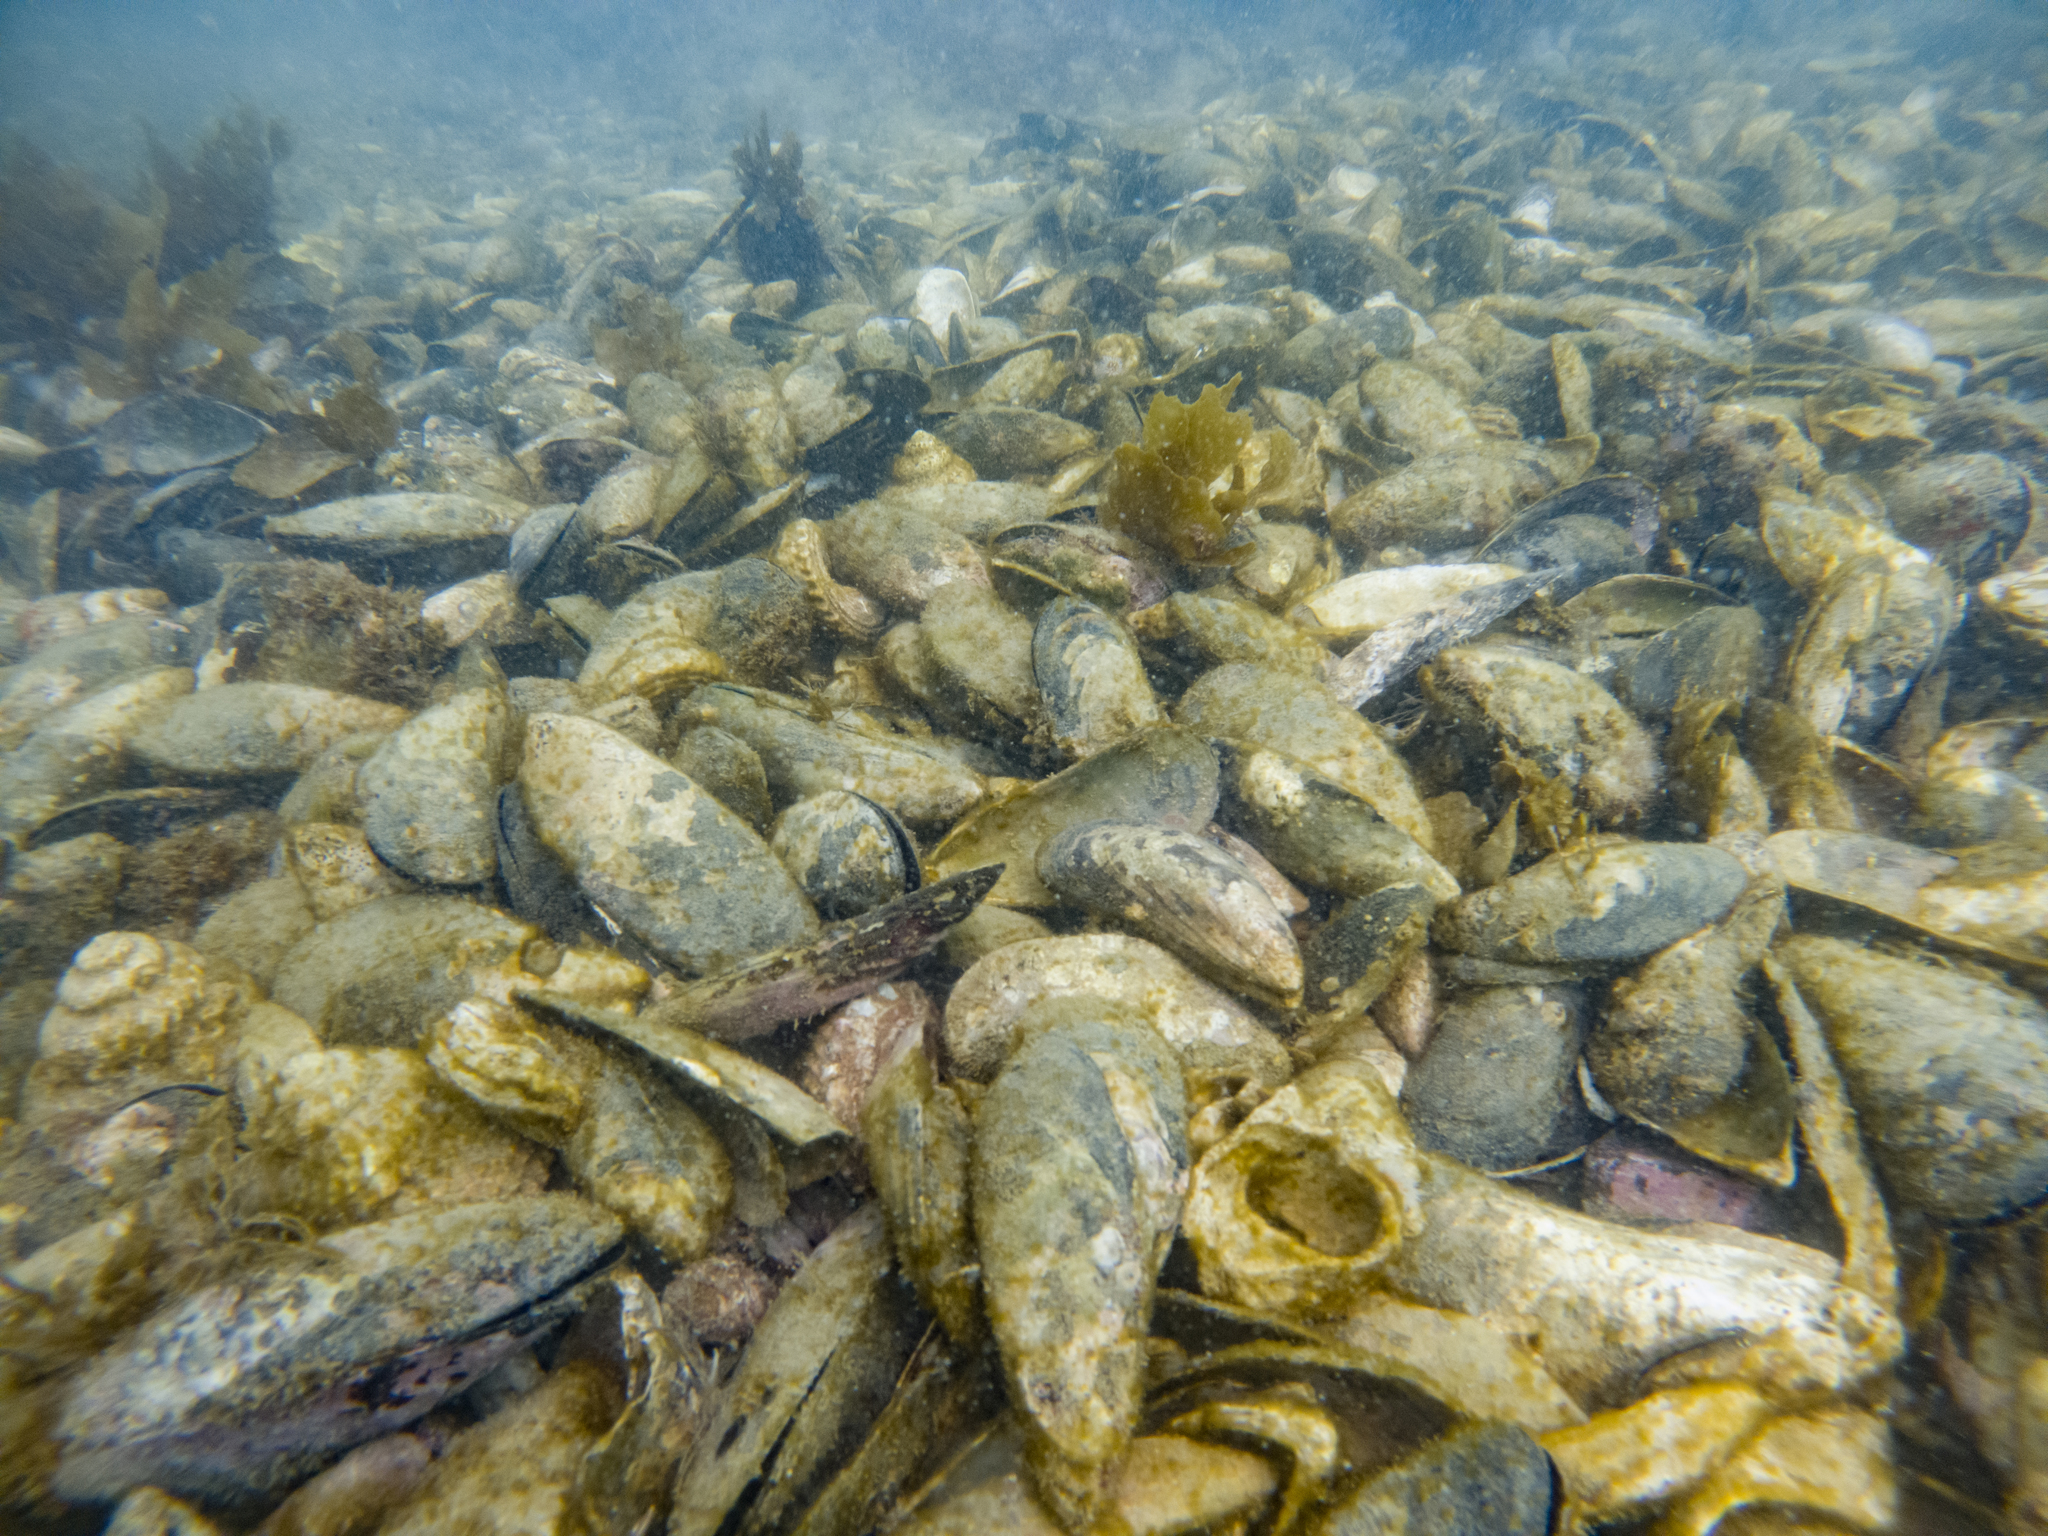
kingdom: Animalia
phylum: Mollusca
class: Bivalvia
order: Mytilida
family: Mytilidae
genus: Perna
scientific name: Perna canaliculus
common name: New zealand greenshelltm
